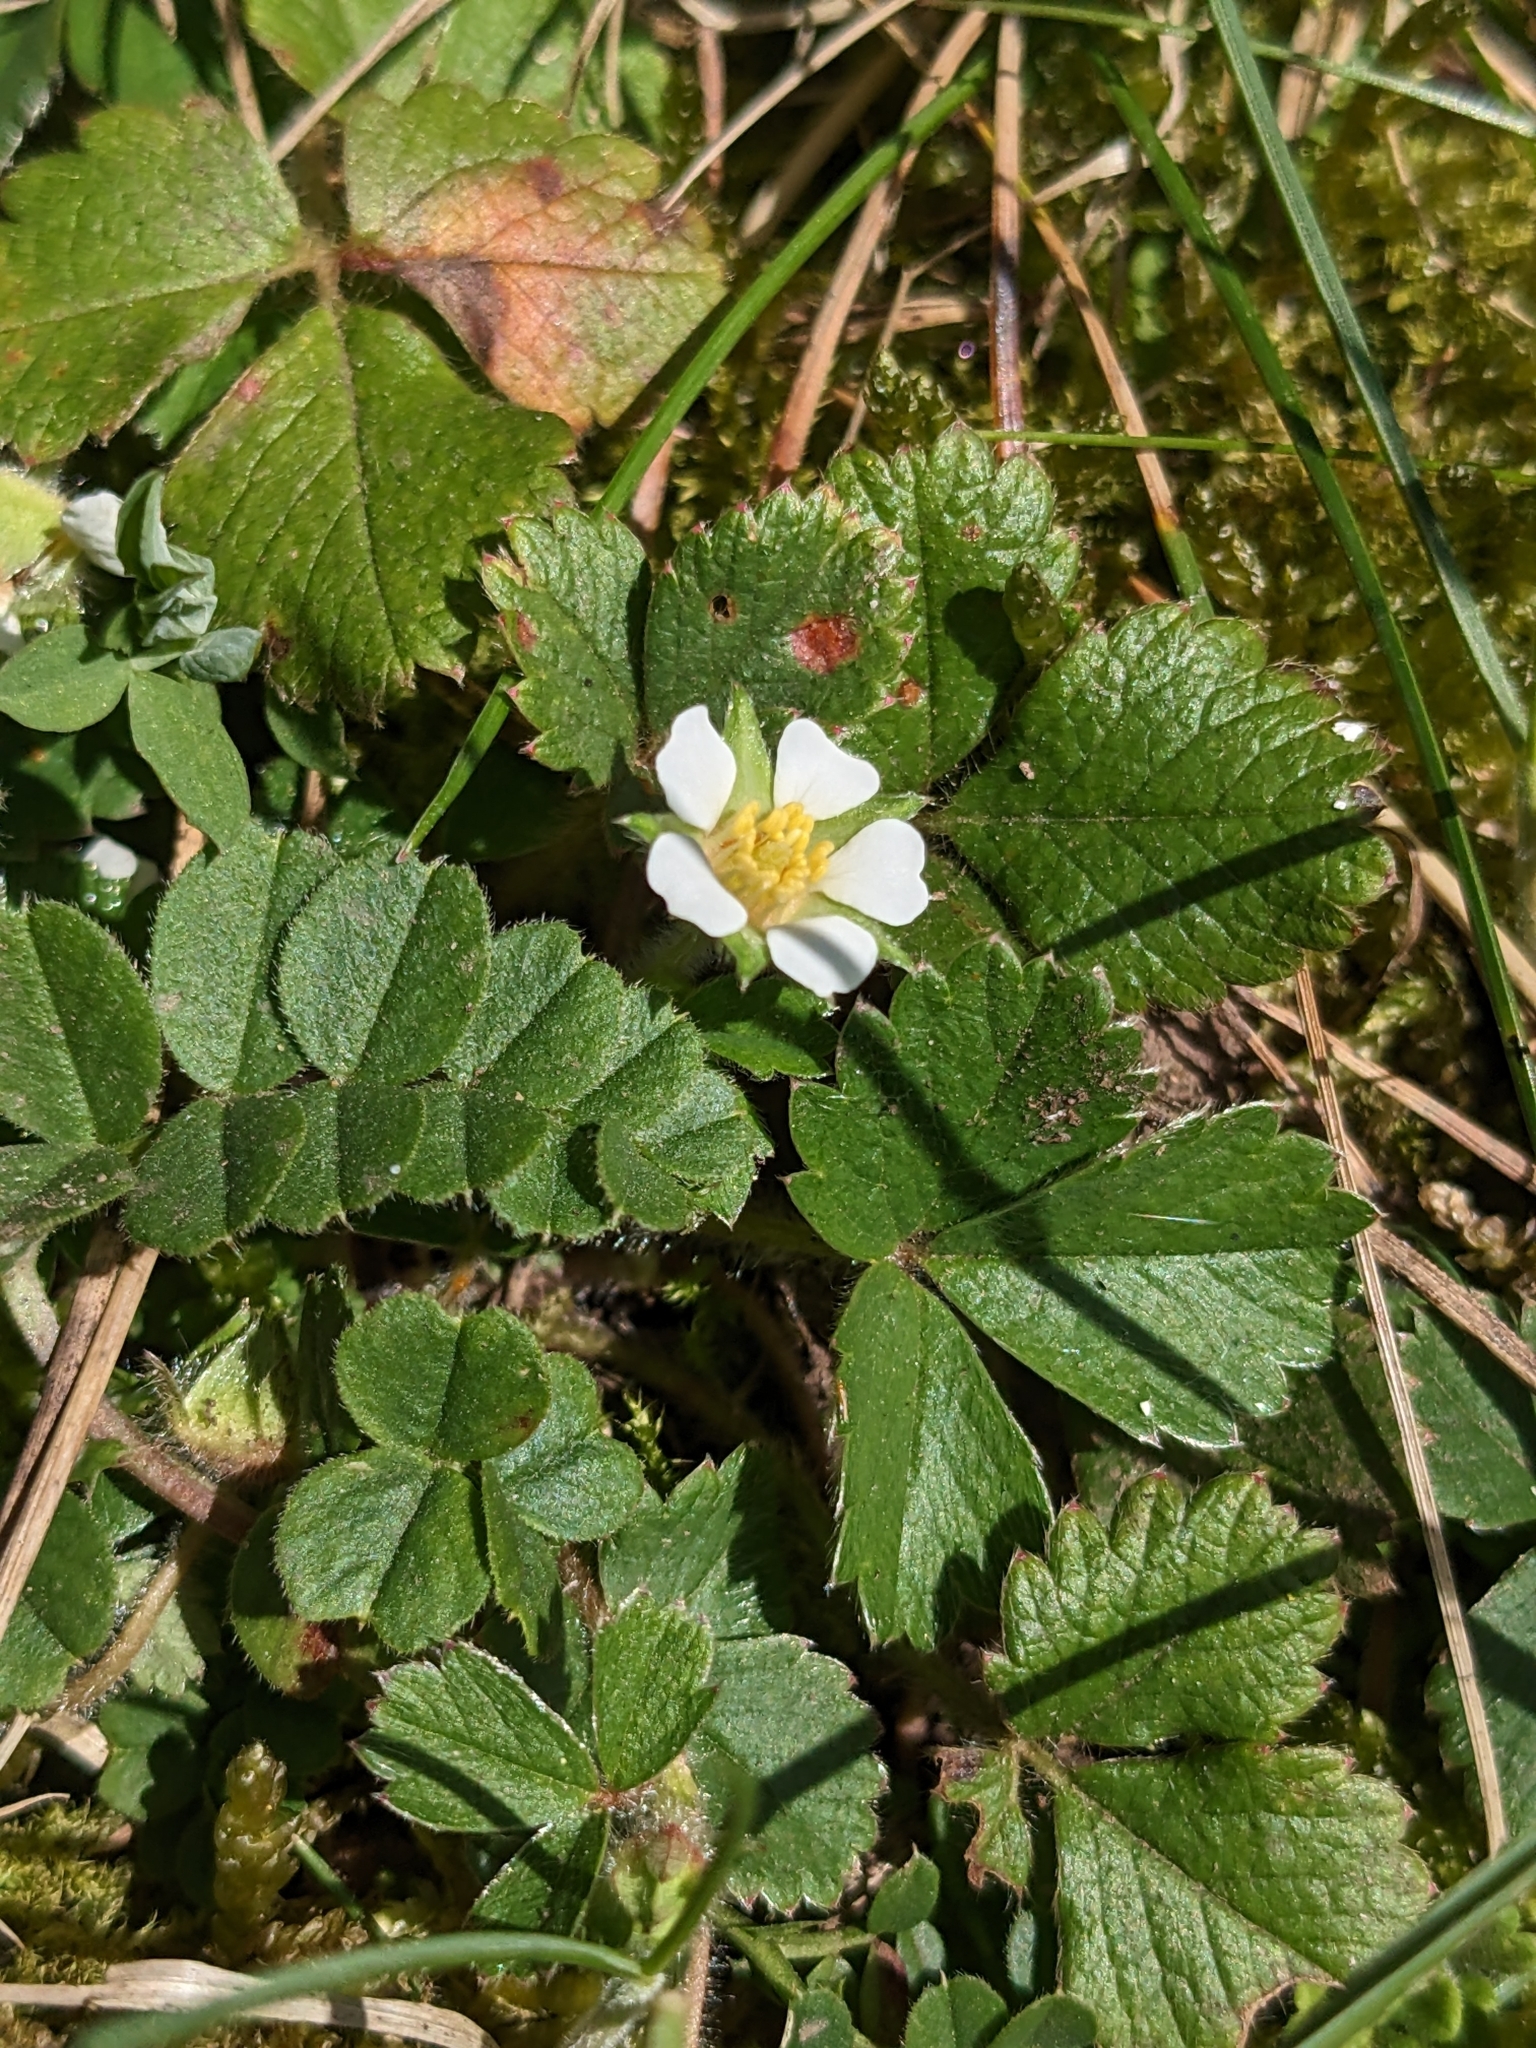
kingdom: Plantae
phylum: Tracheophyta
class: Magnoliopsida
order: Rosales
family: Rosaceae
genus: Potentilla
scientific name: Potentilla sterilis
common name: Barren strawberry
